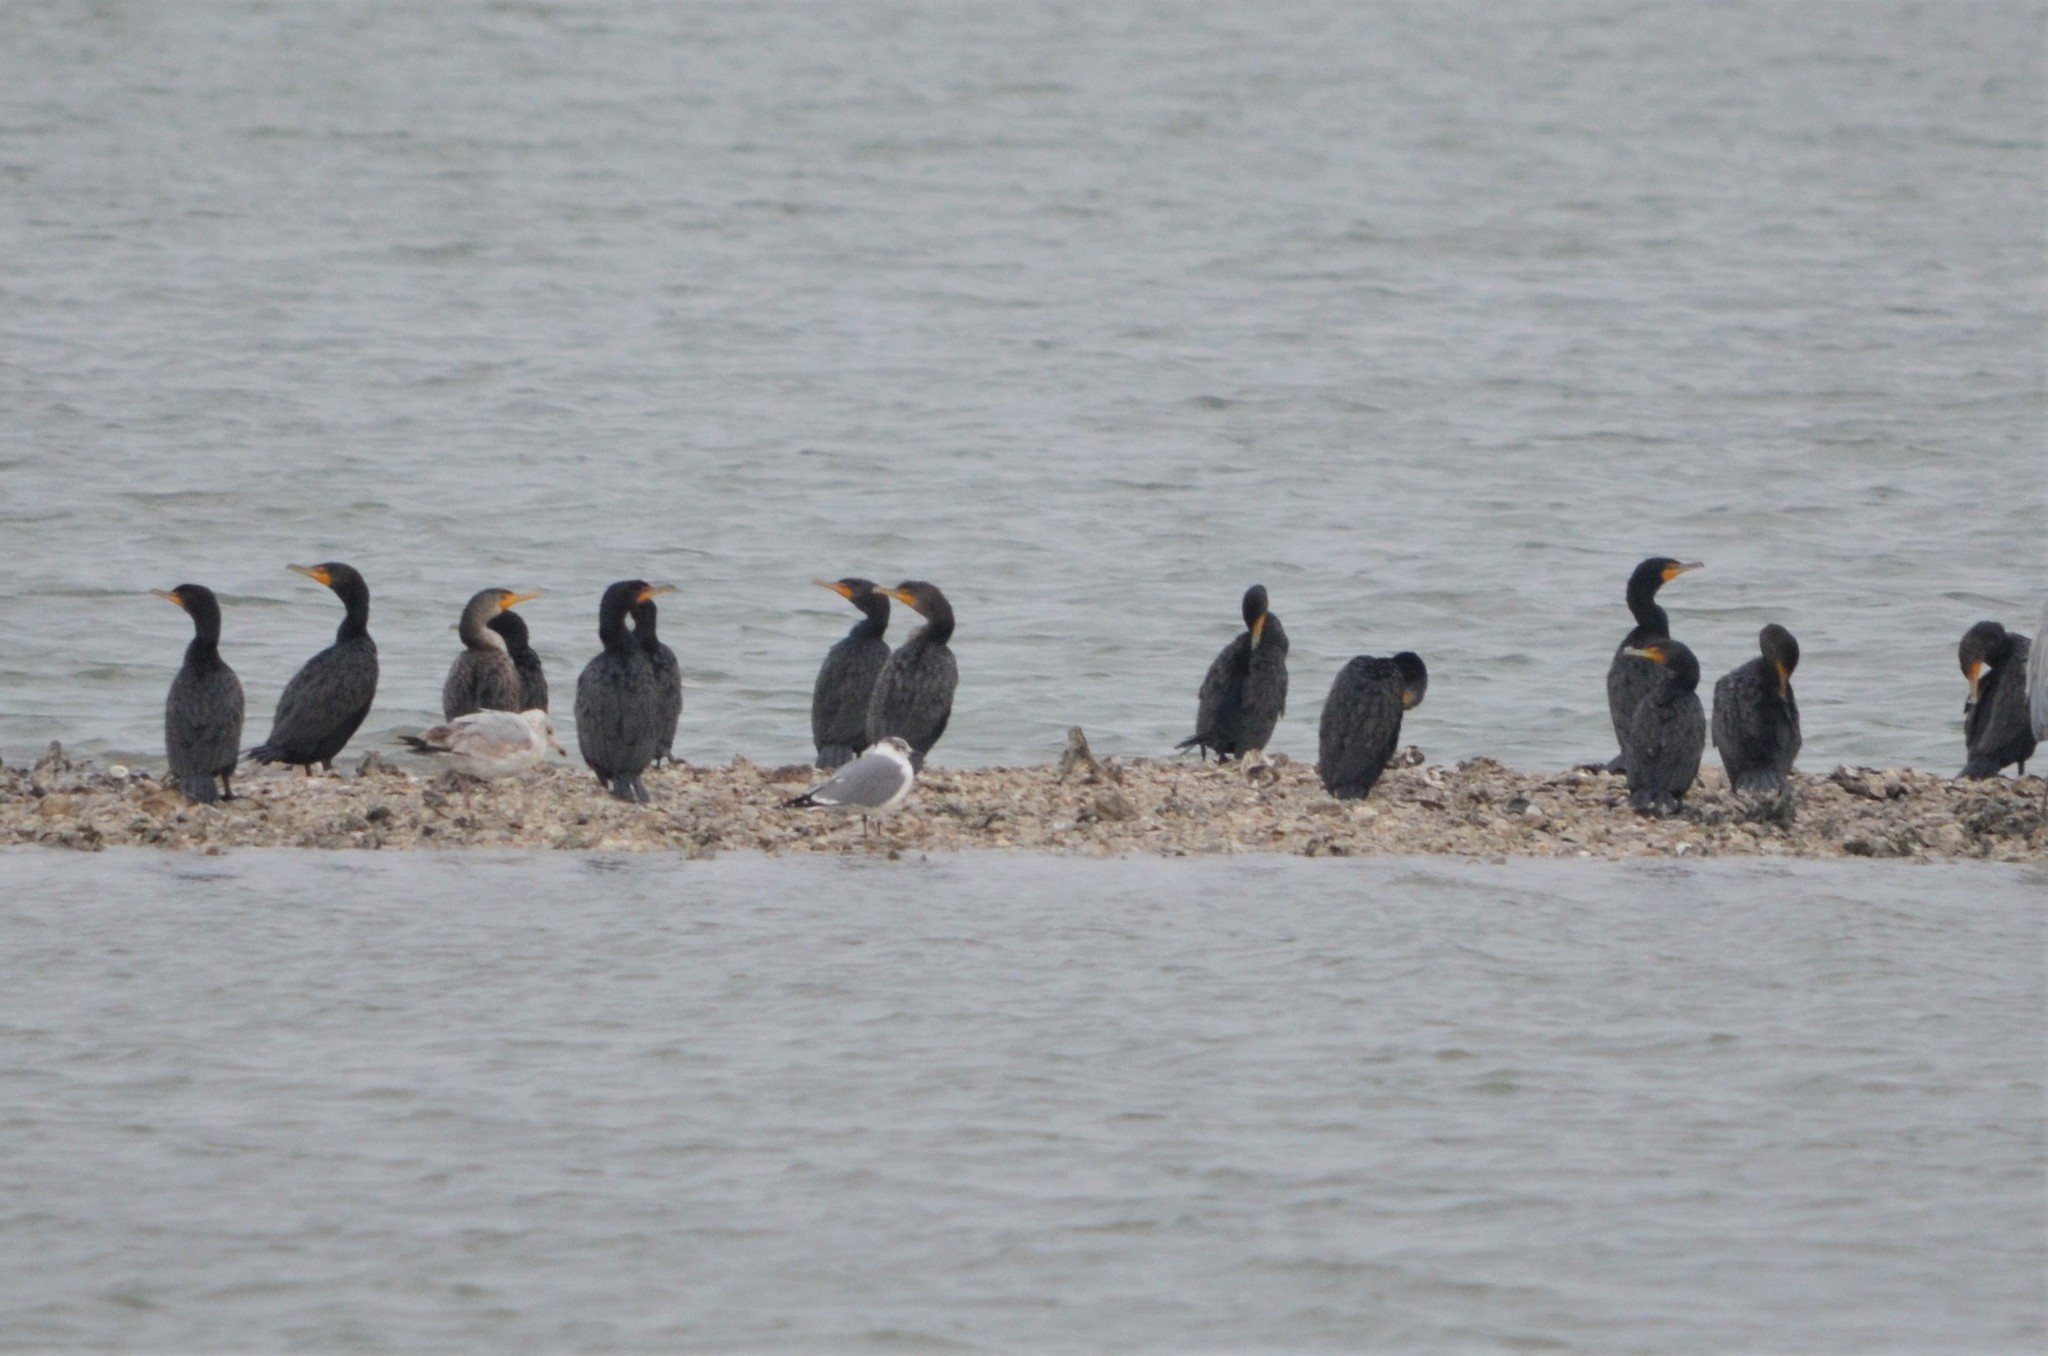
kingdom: Animalia
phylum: Chordata
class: Aves
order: Suliformes
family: Phalacrocoracidae
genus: Phalacrocorax
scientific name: Phalacrocorax auritus
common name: Double-crested cormorant
